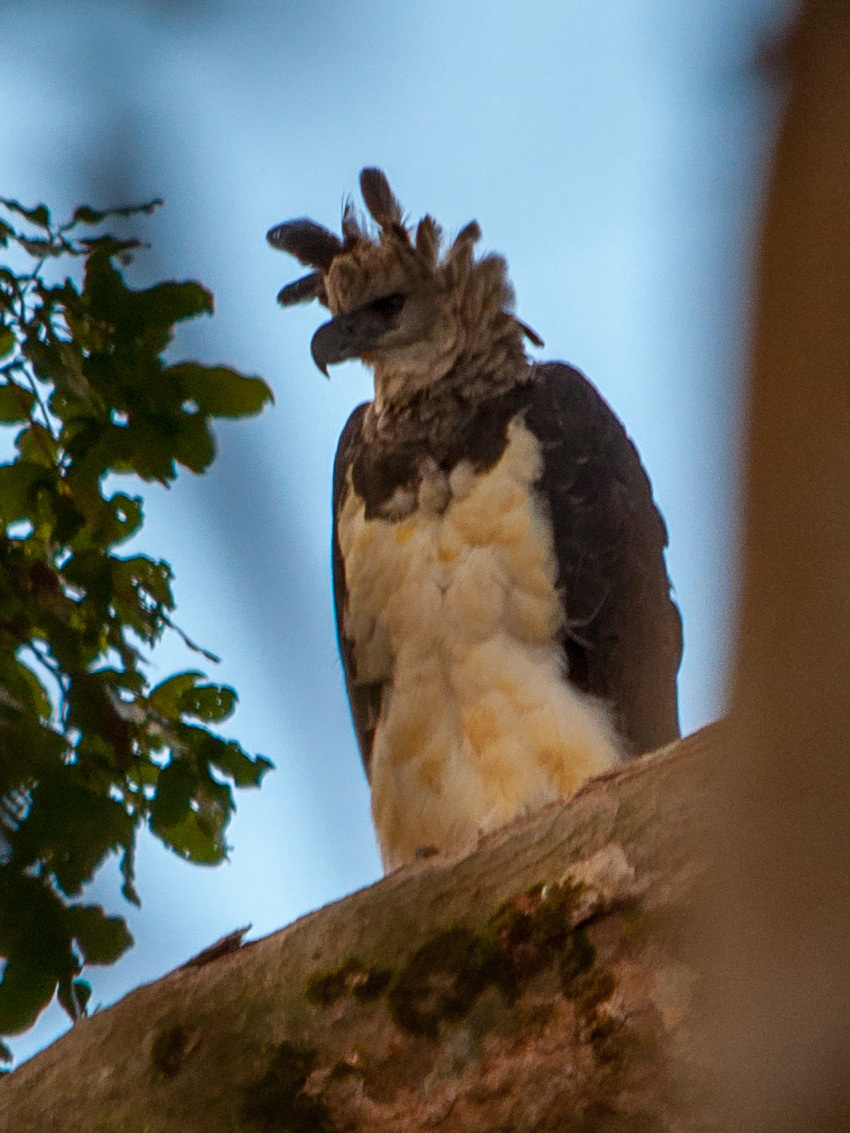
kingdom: Animalia
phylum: Chordata
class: Aves
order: Accipitriformes
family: Accipitridae
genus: Harpia
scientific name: Harpia harpyja
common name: Harpy eagle
